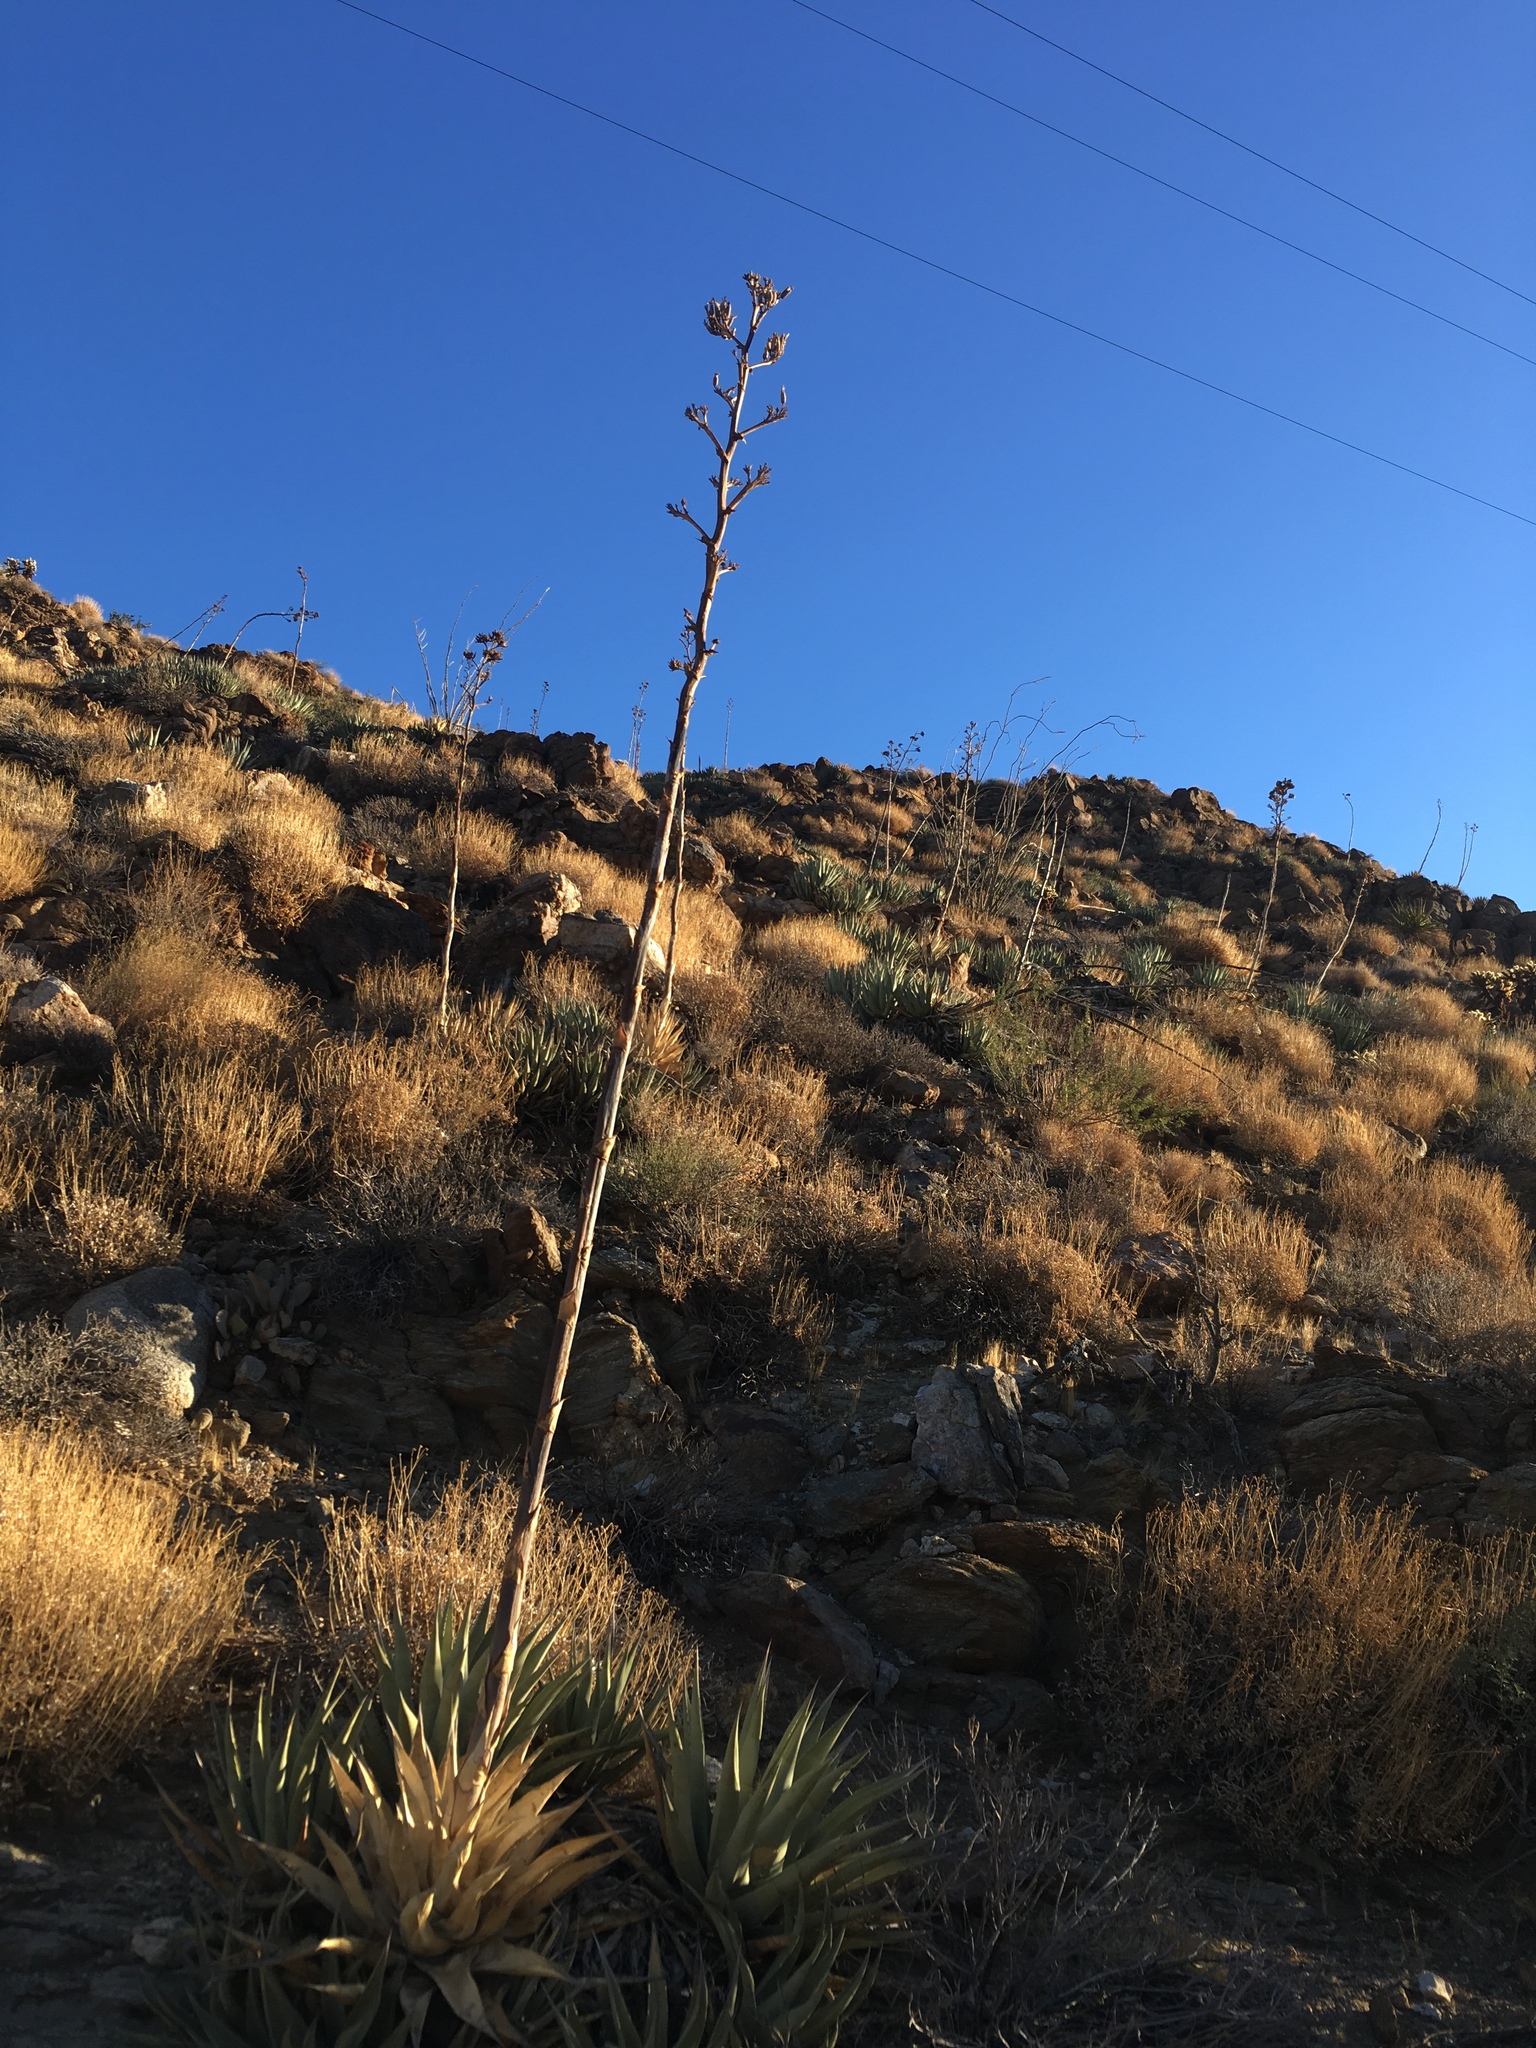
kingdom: Plantae
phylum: Tracheophyta
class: Liliopsida
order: Asparagales
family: Asparagaceae
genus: Agave
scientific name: Agave deserti
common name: Desert agave
